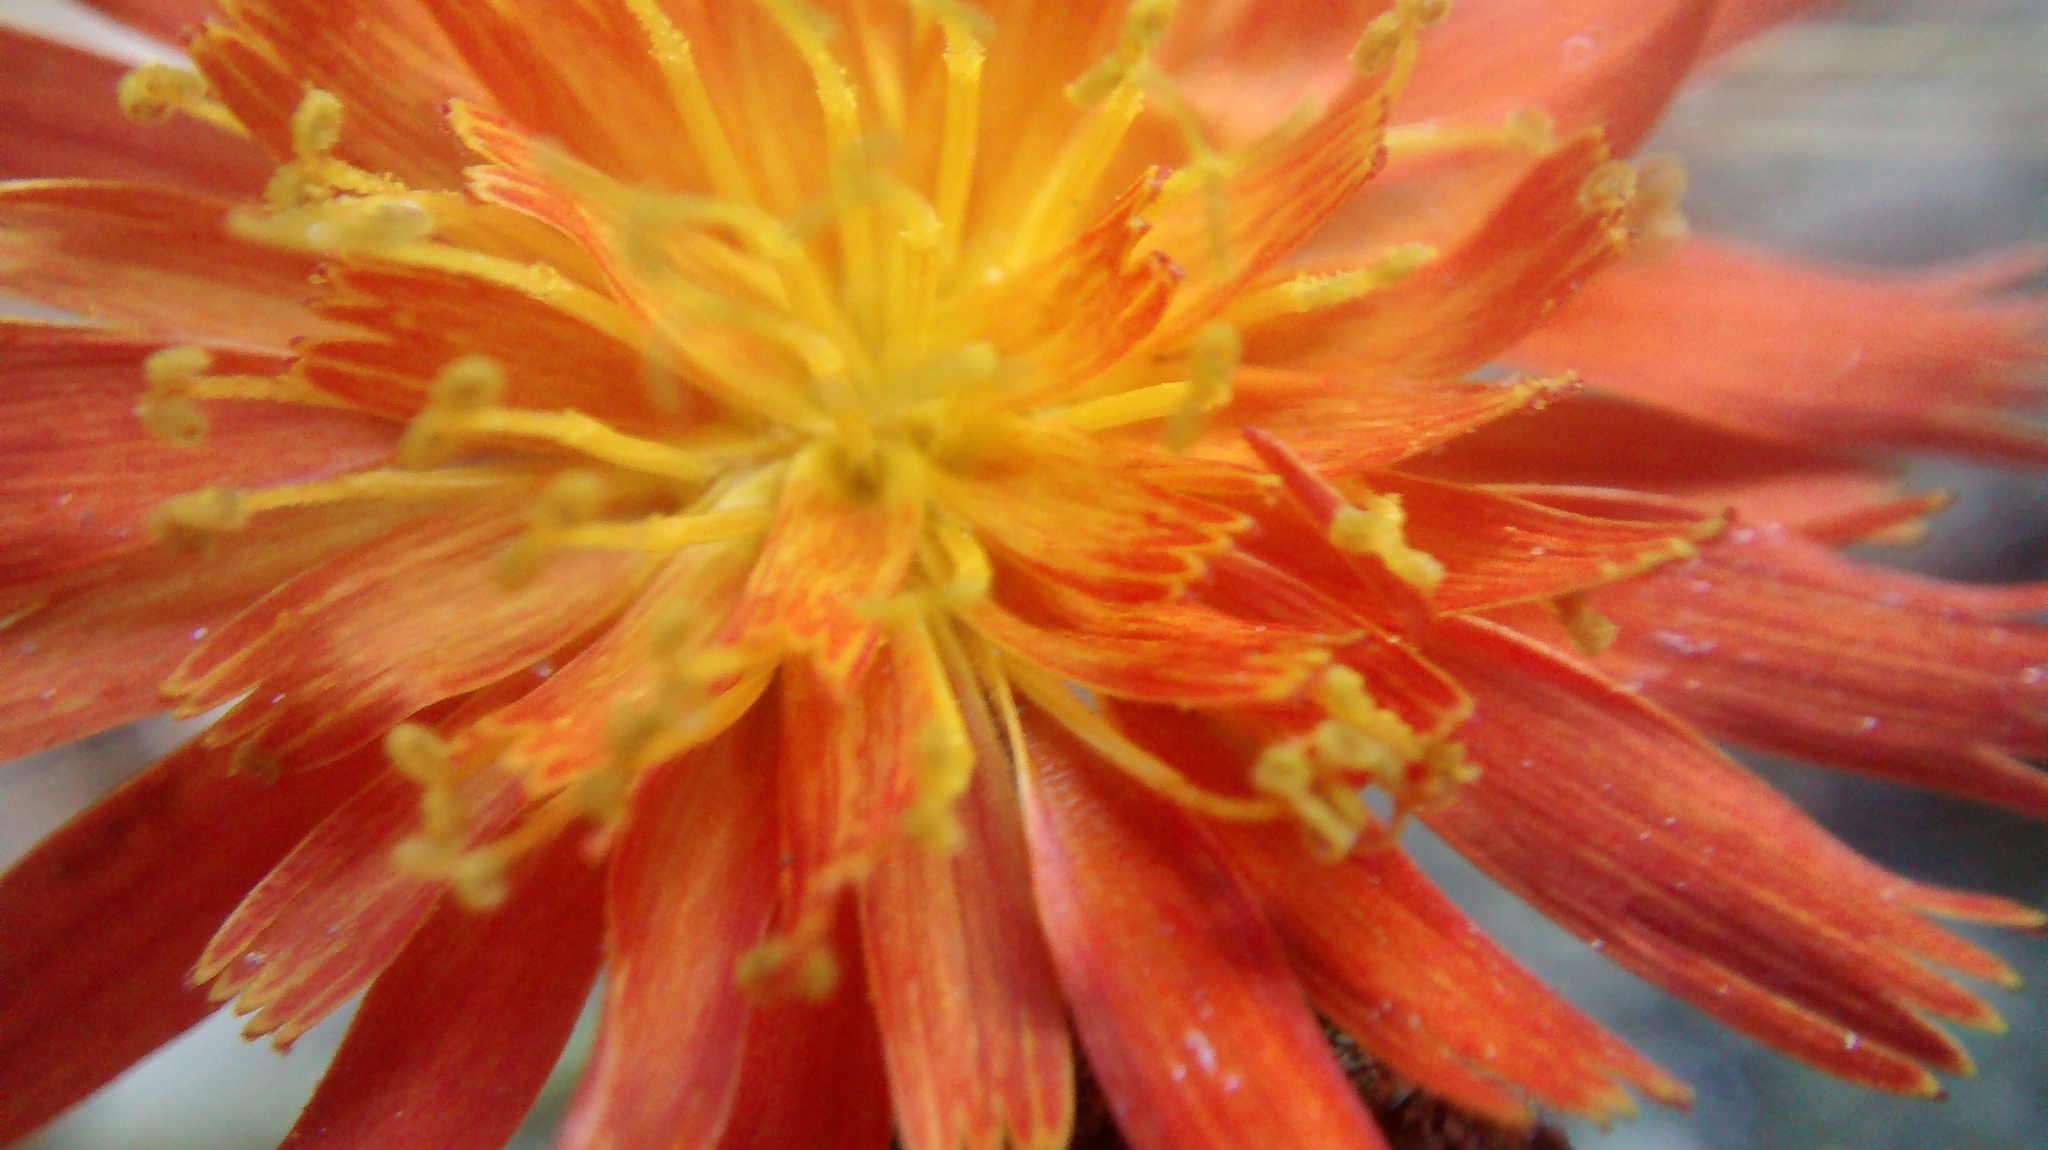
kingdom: Plantae
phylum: Tracheophyta
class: Magnoliopsida
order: Asterales
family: Asteraceae
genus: Pilosella
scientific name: Pilosella aurantiaca
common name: Fox-and-cubs
